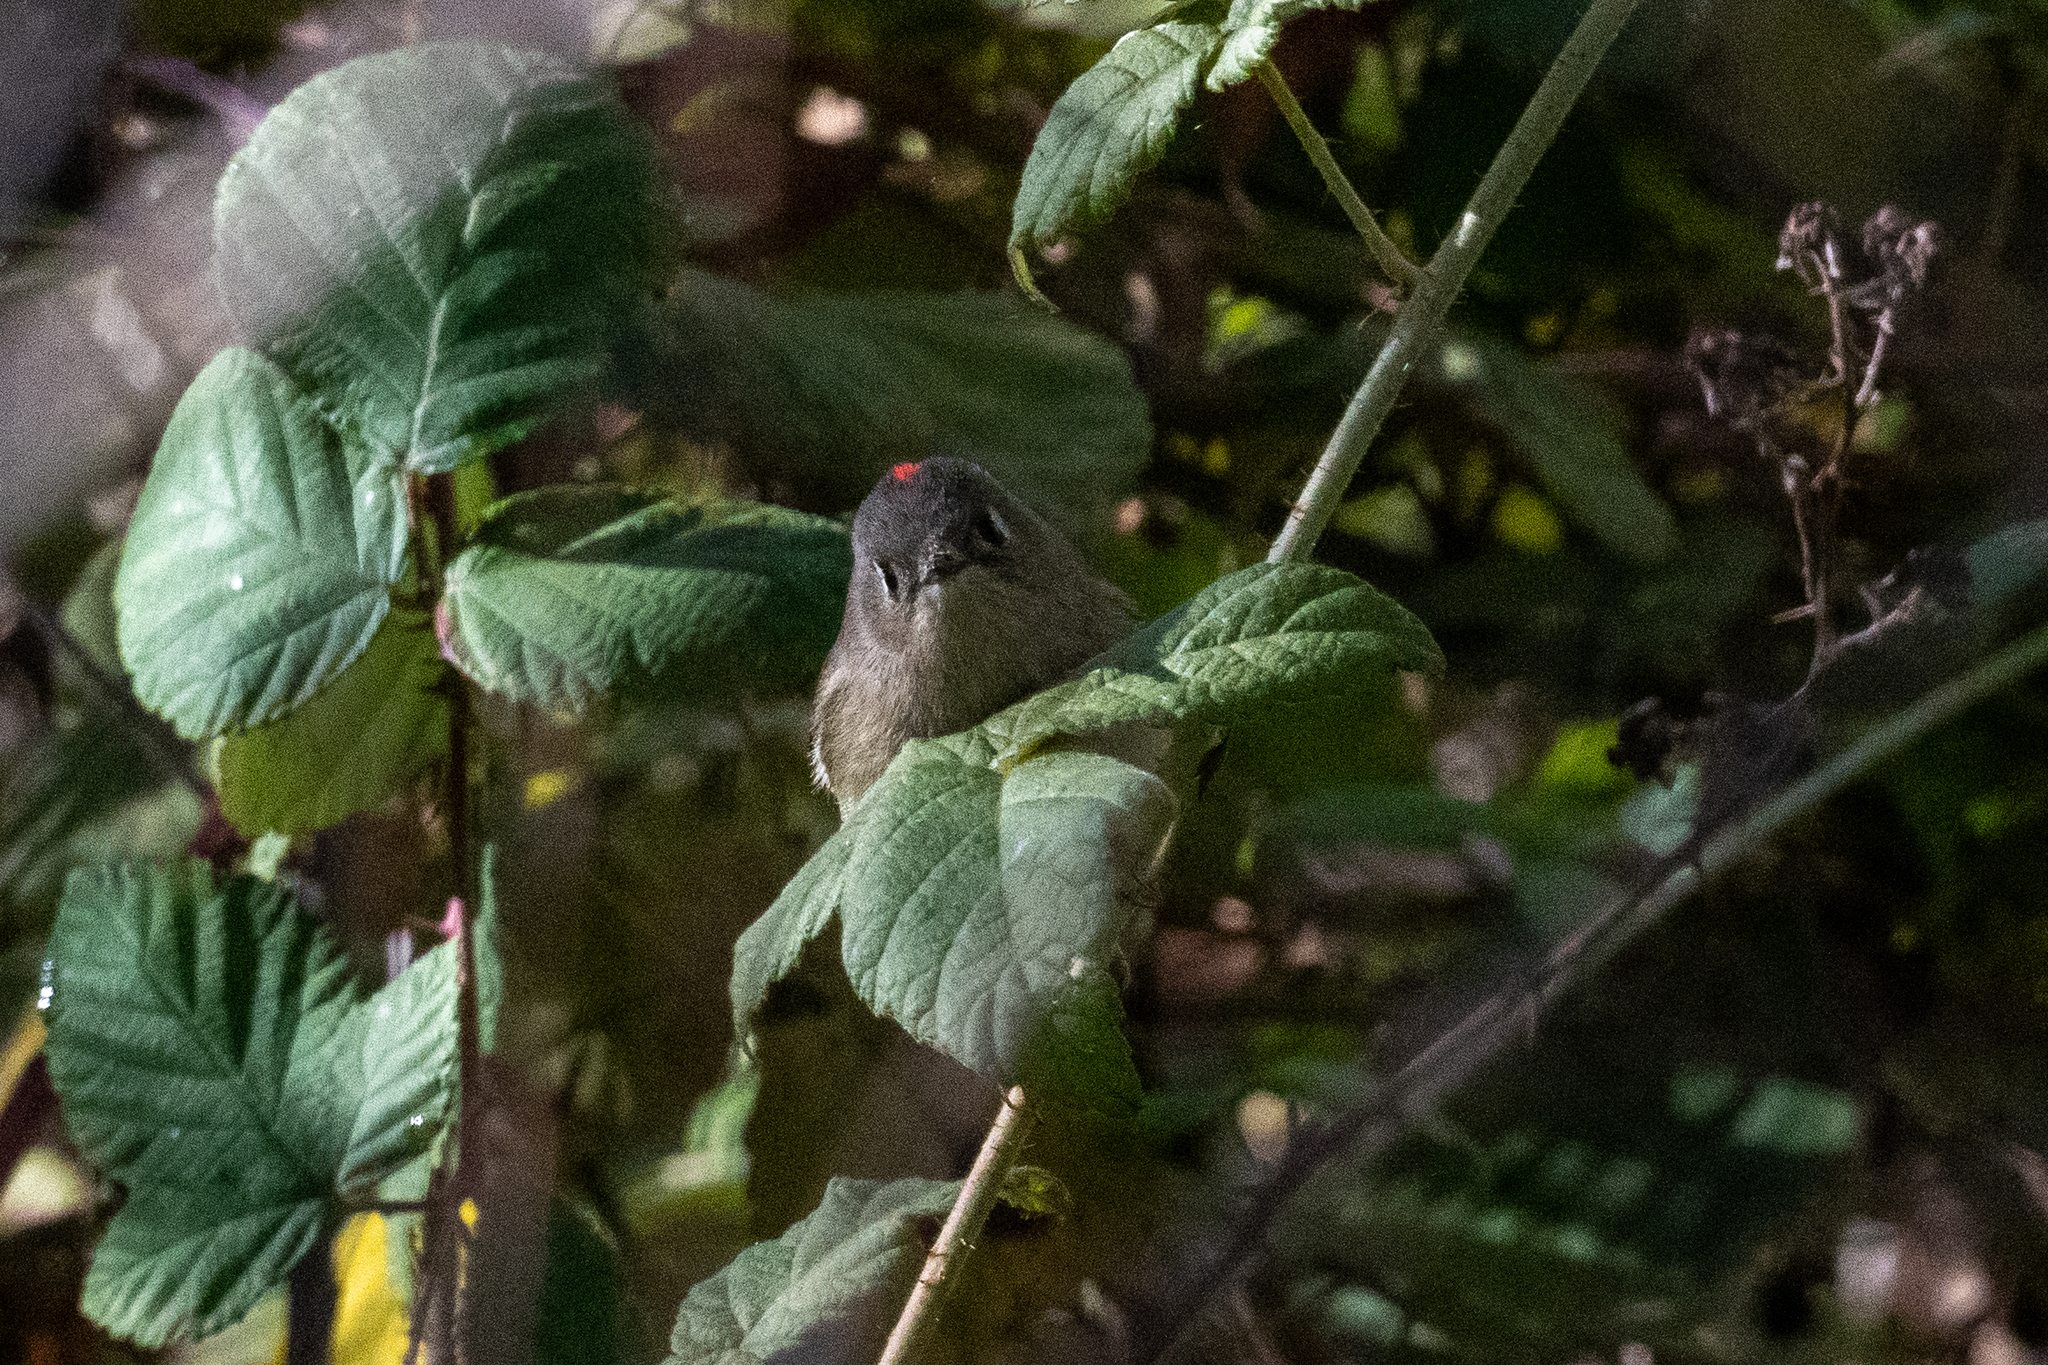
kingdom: Animalia
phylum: Chordata
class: Aves
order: Passeriformes
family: Regulidae
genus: Regulus
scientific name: Regulus calendula
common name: Ruby-crowned kinglet
